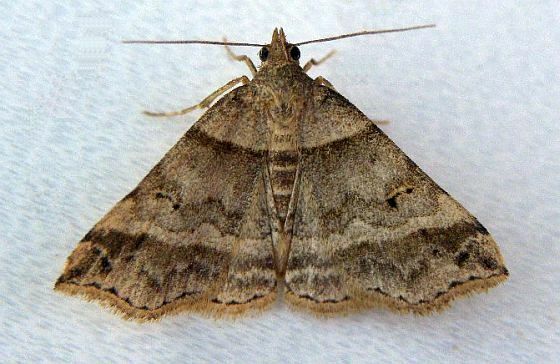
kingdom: Animalia
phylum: Arthropoda
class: Insecta
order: Lepidoptera
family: Erebidae
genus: Phaeolita
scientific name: Phaeolita pyramusalis
